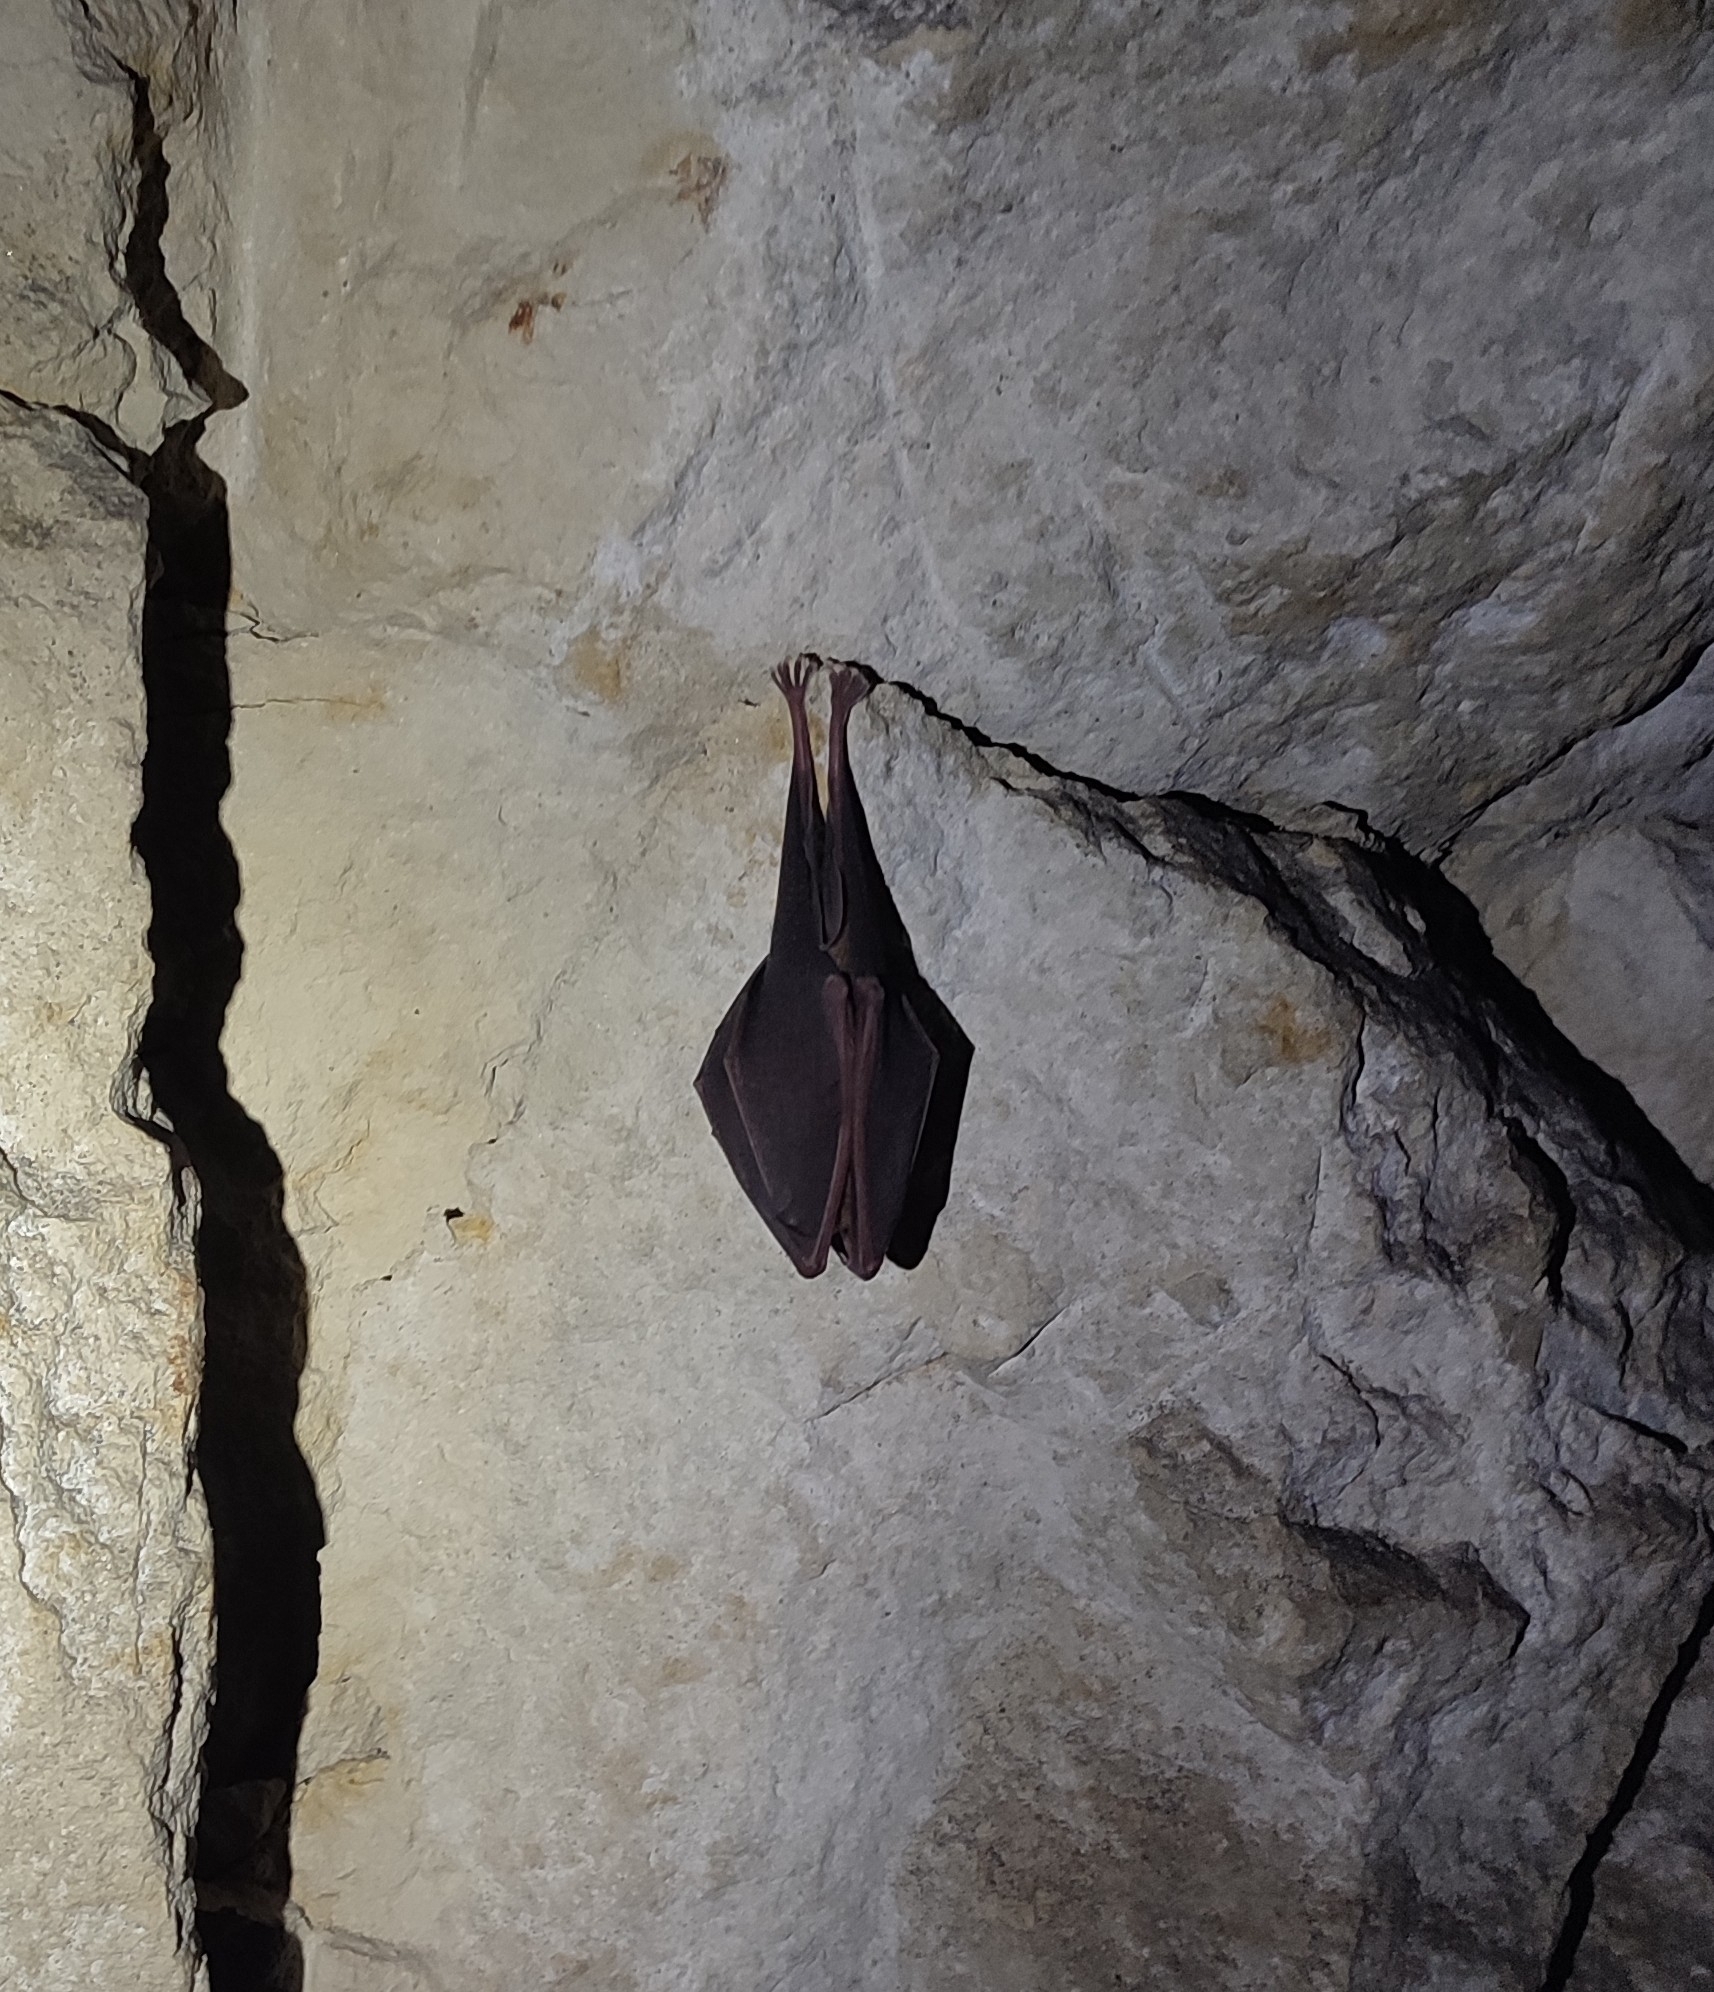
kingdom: Animalia
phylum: Chordata
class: Mammalia
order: Chiroptera
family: Rhinolophidae
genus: Rhinolophus
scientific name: Rhinolophus ferrumequinum
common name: Greater horseshoe bat
